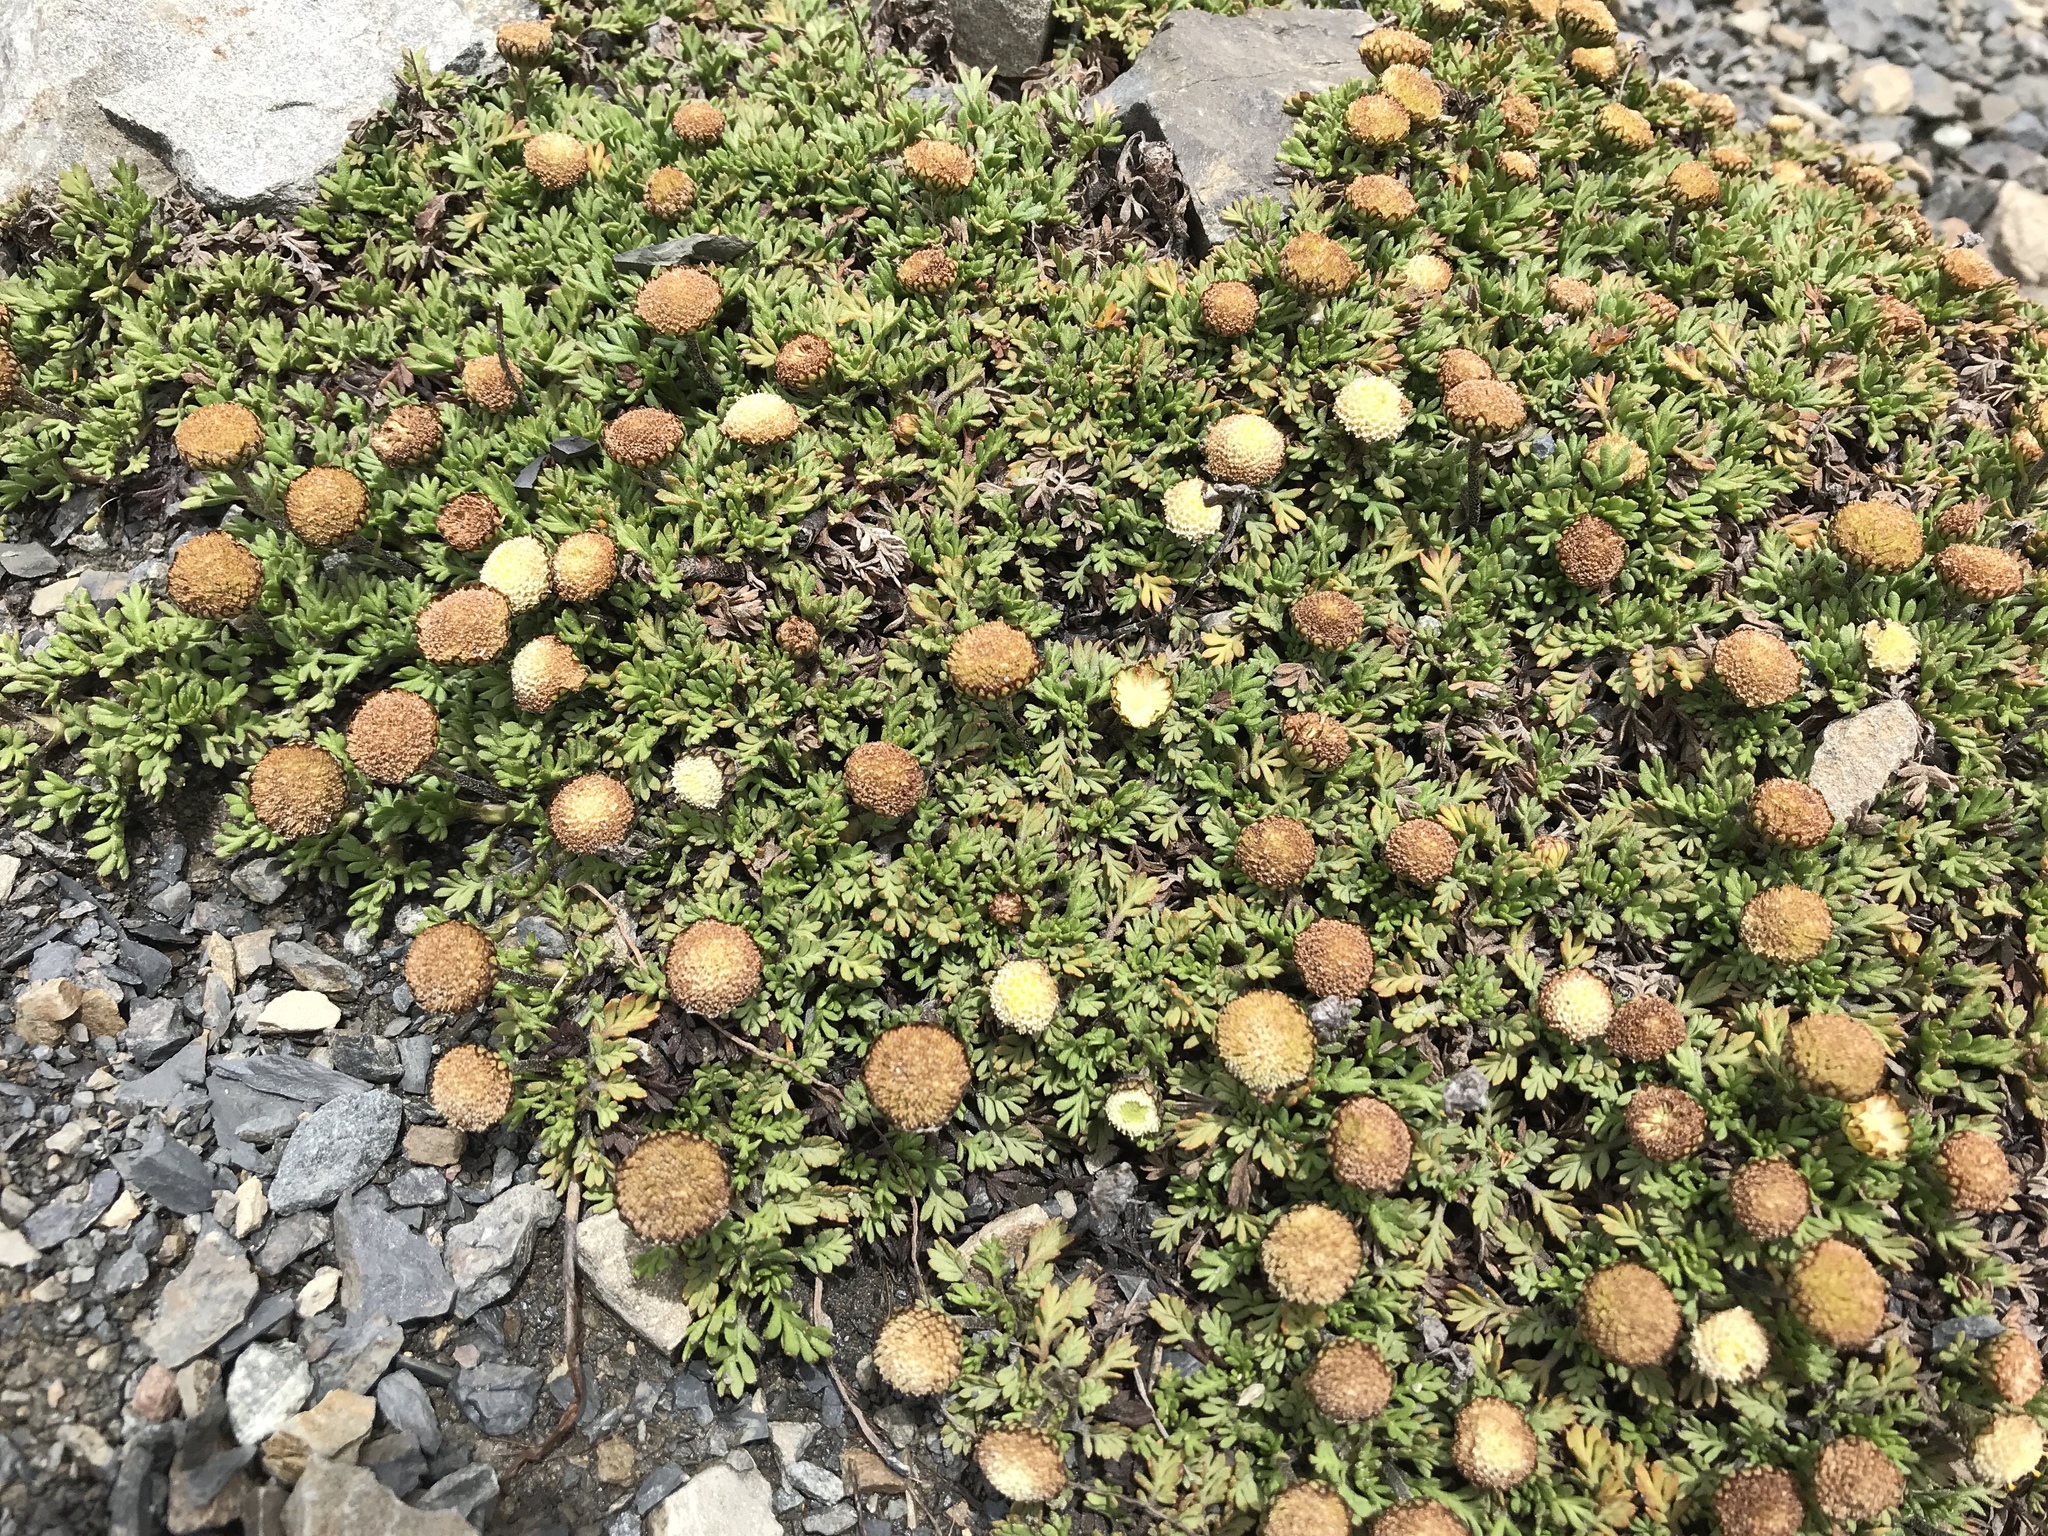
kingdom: Plantae
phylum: Tracheophyta
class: Magnoliopsida
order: Asterales
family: Asteraceae
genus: Leptinella
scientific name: Leptinella pyrethrifolia
